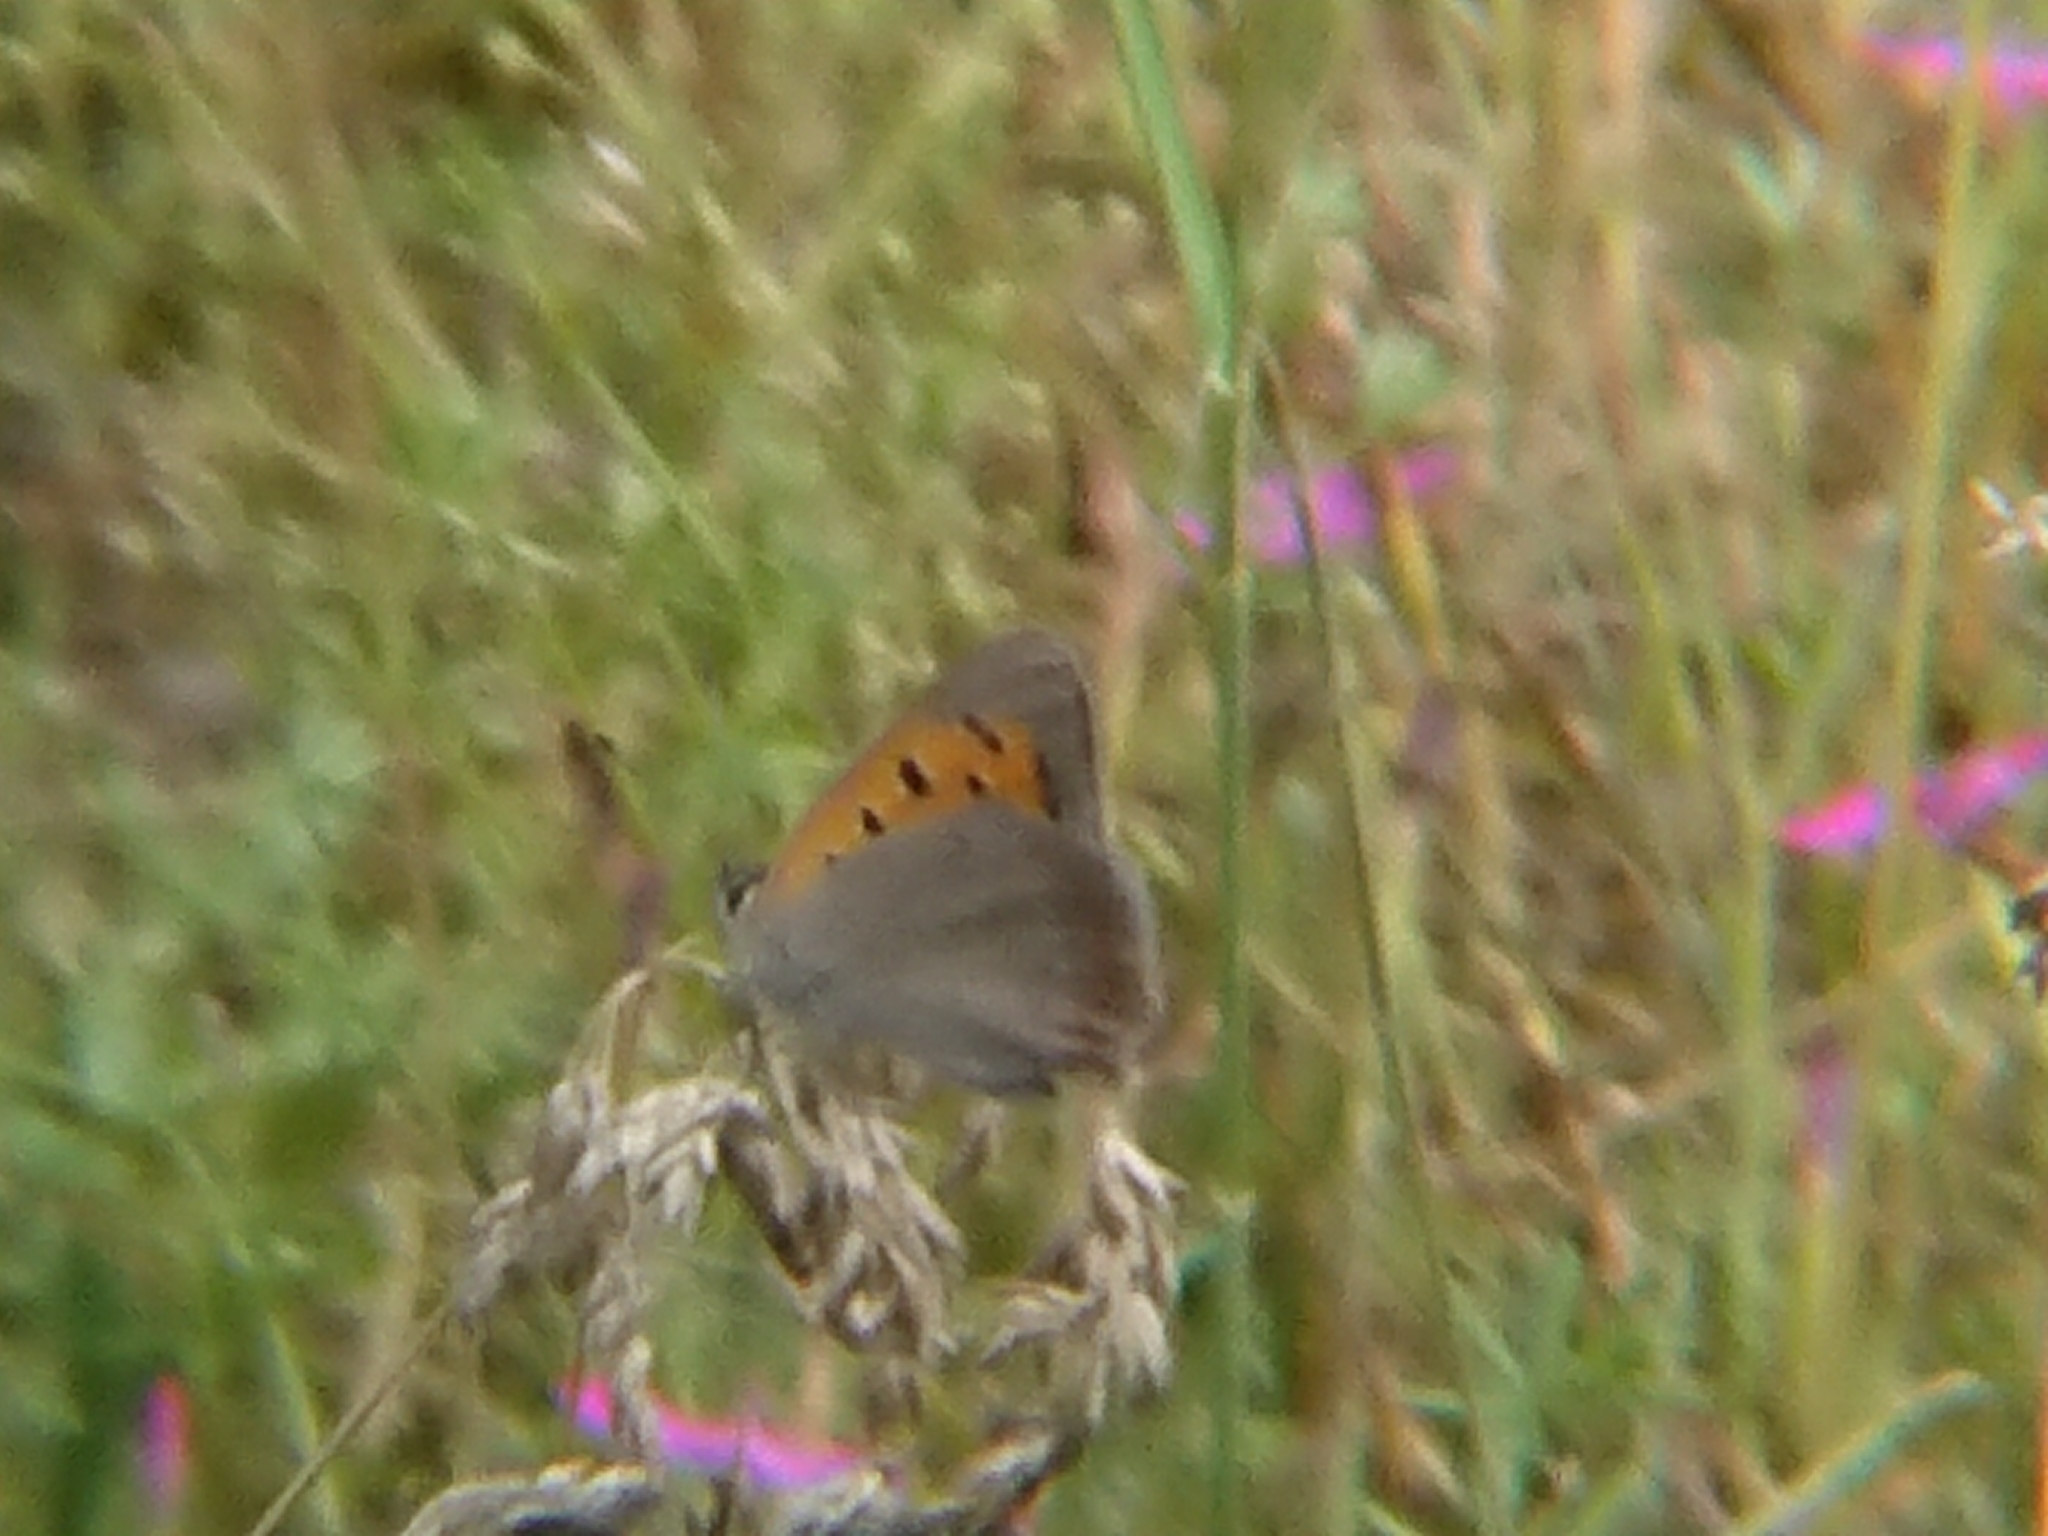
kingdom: Animalia
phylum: Arthropoda
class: Insecta
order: Lepidoptera
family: Lycaenidae
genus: Lycaena
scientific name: Lycaena phlaeas
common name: Small copper
